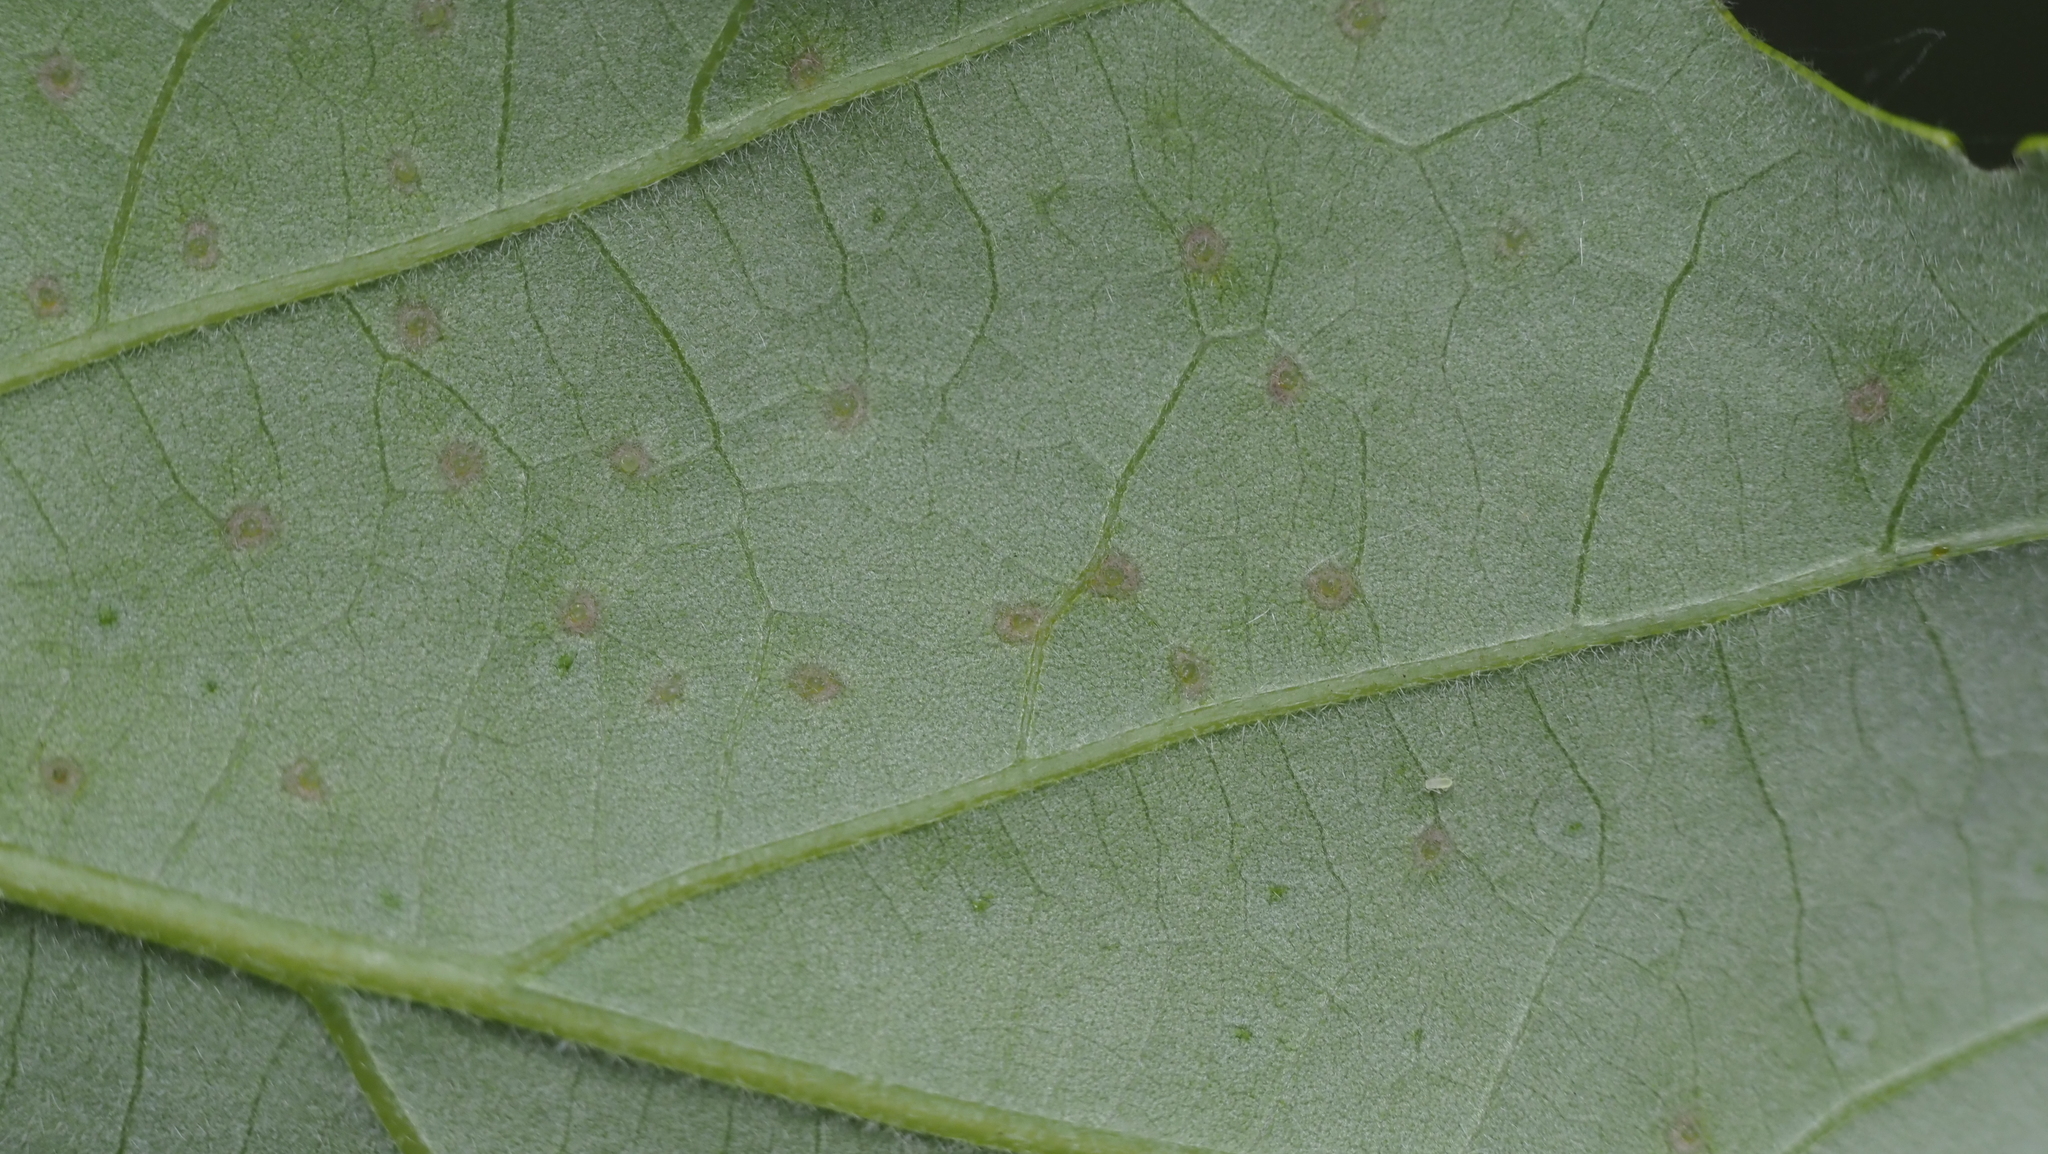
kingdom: Animalia
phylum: Arthropoda
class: Insecta
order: Hymenoptera
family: Cynipidae
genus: Neuroterus
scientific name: Neuroterus saltarius
